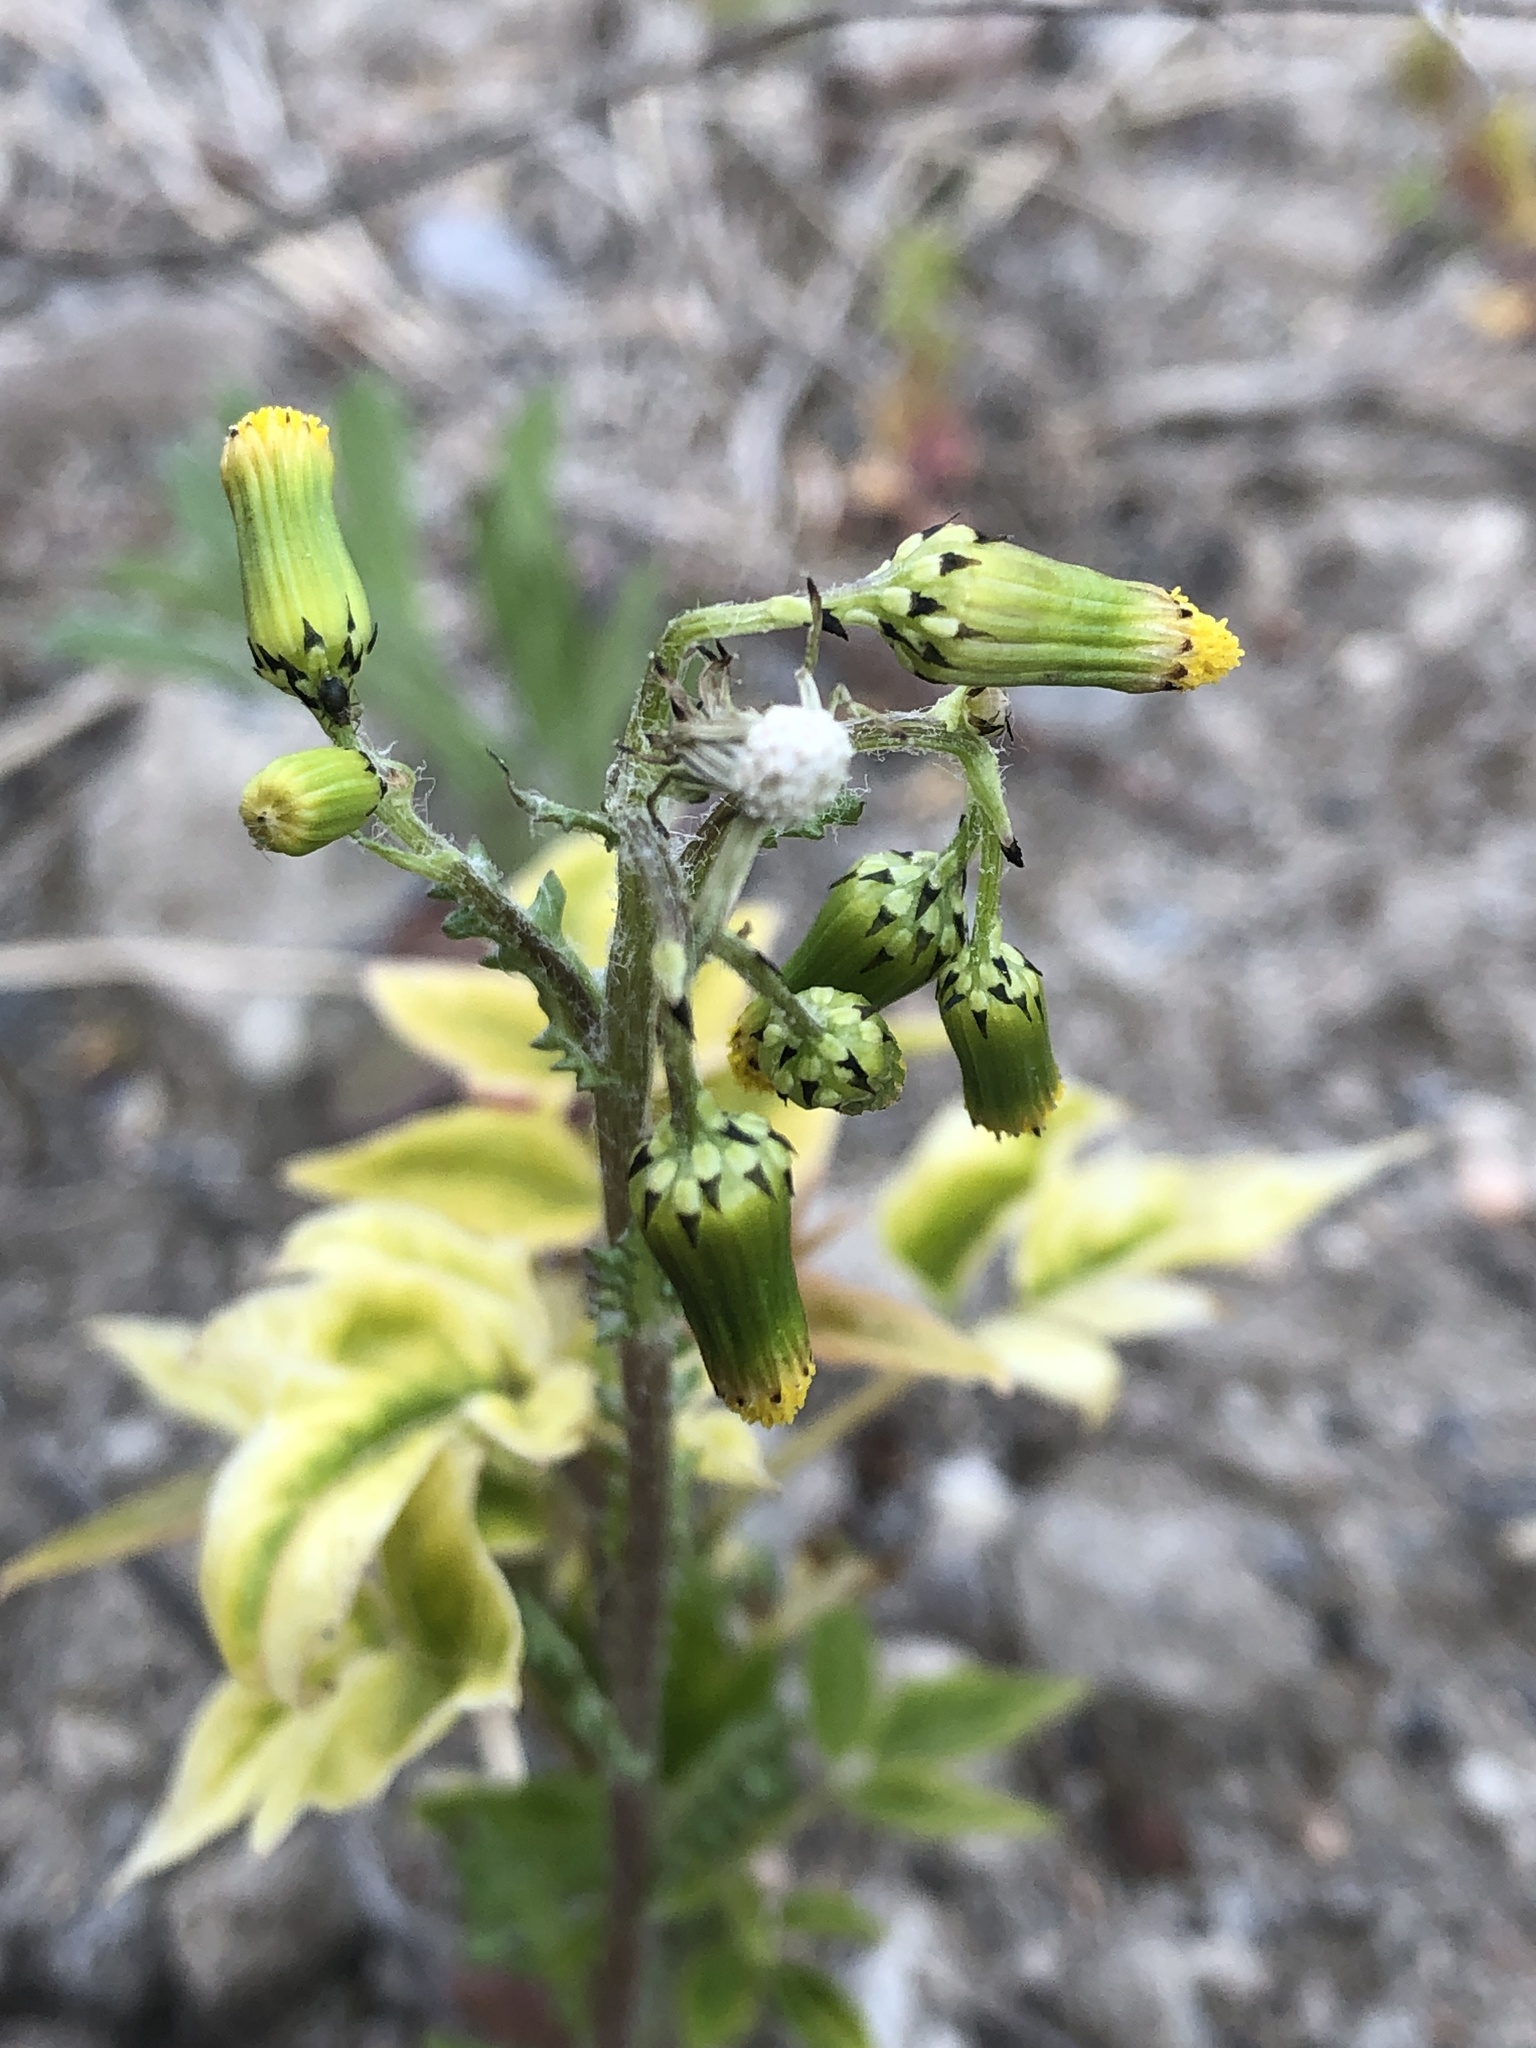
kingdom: Plantae
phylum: Tracheophyta
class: Magnoliopsida
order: Asterales
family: Asteraceae
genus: Senecio
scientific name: Senecio vulgaris
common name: Old-man-in-the-spring
